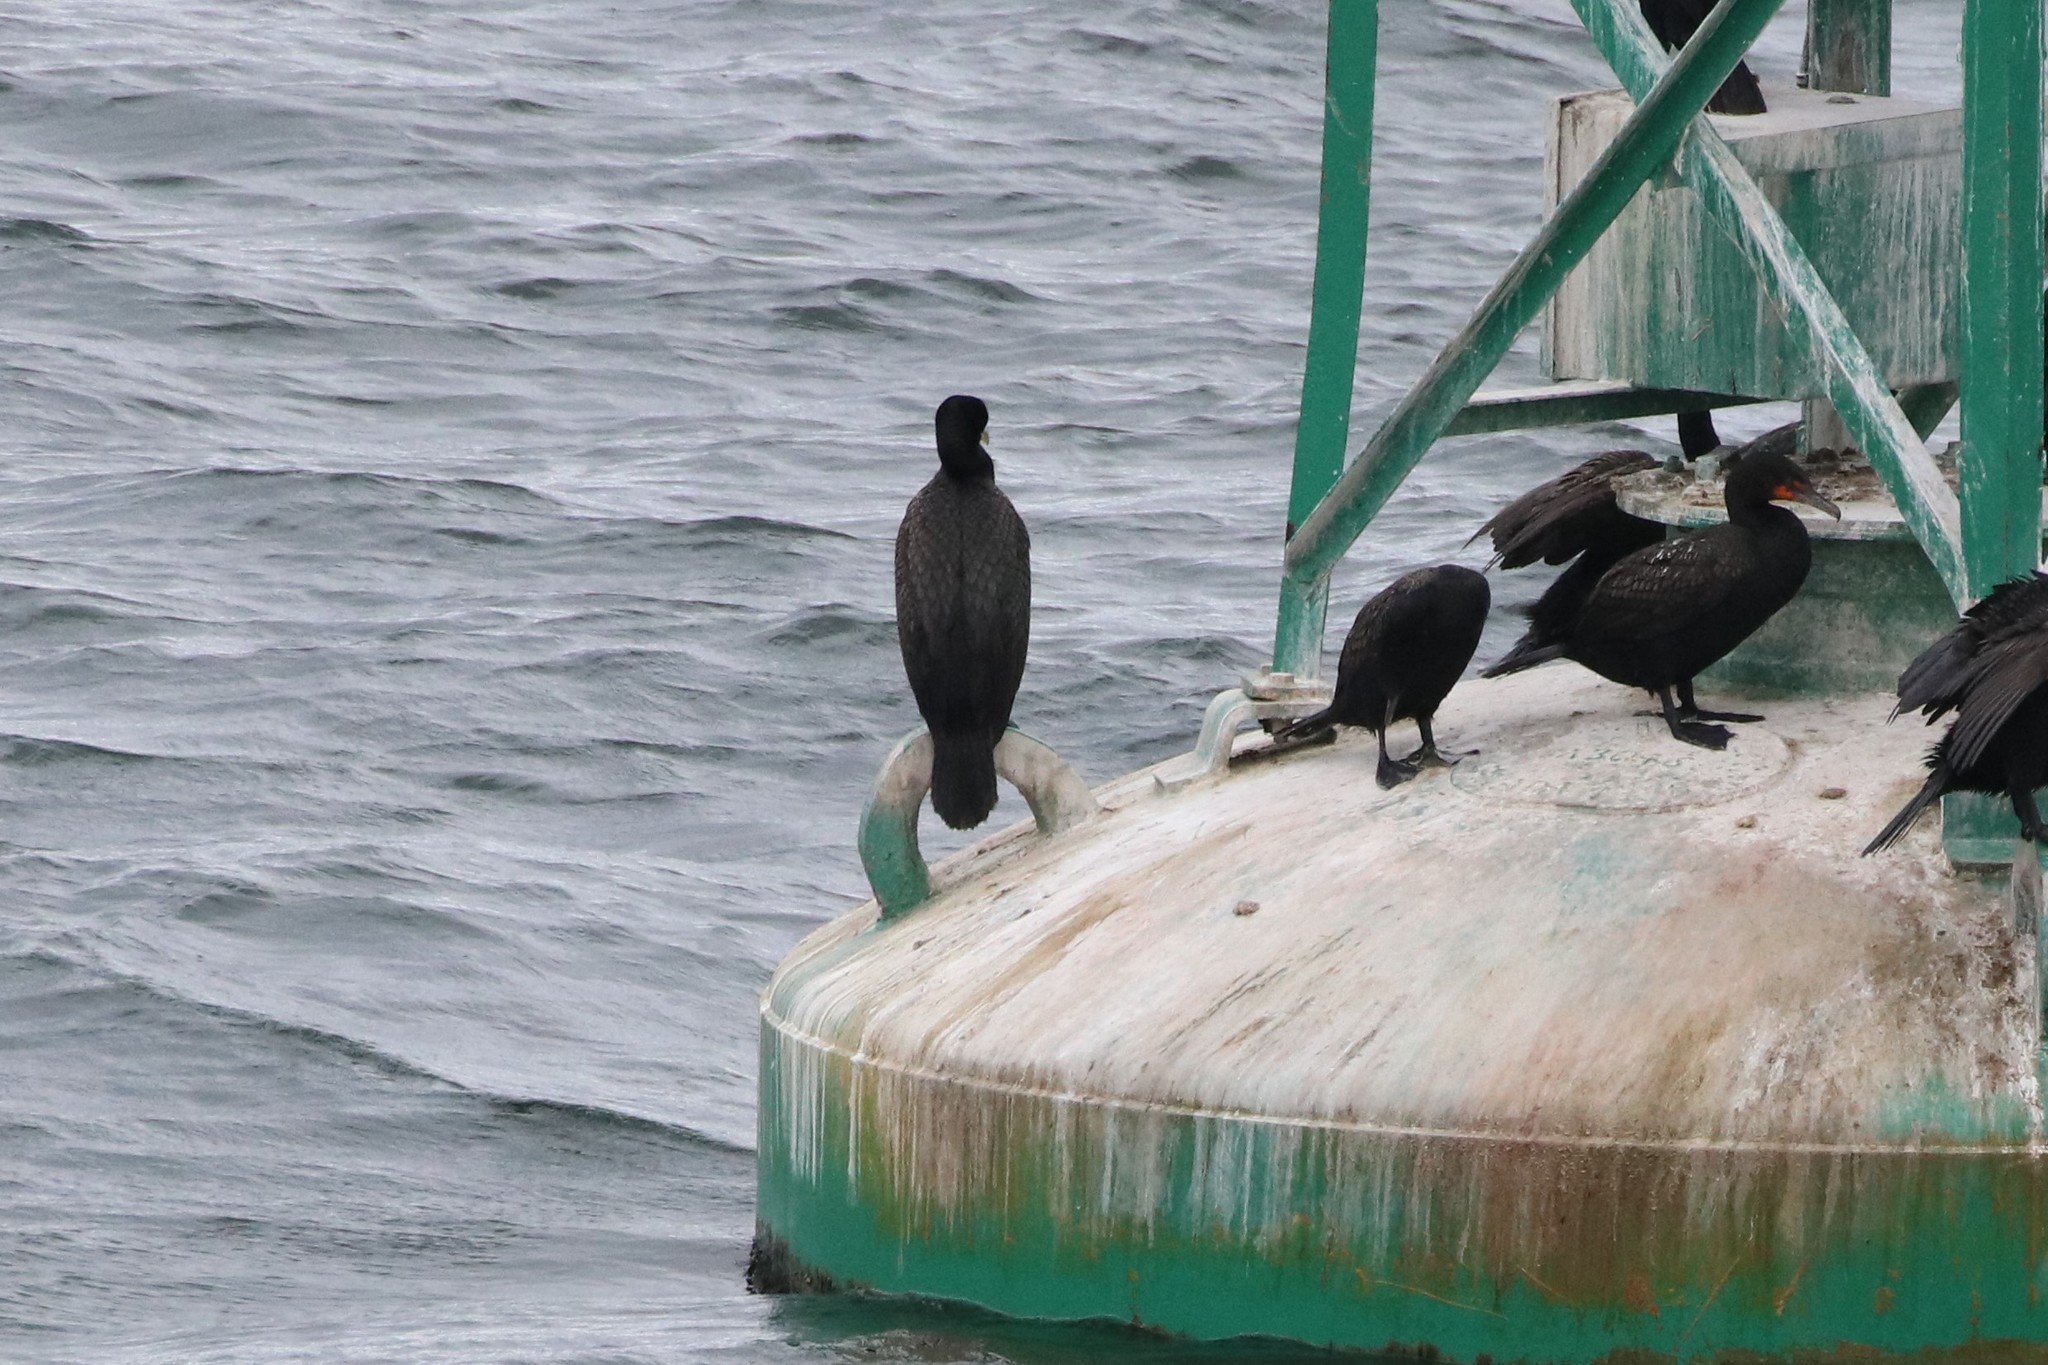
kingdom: Animalia
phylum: Chordata
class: Aves
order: Suliformes
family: Phalacrocoracidae
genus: Phalacrocorax
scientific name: Phalacrocorax auritus
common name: Double-crested cormorant
